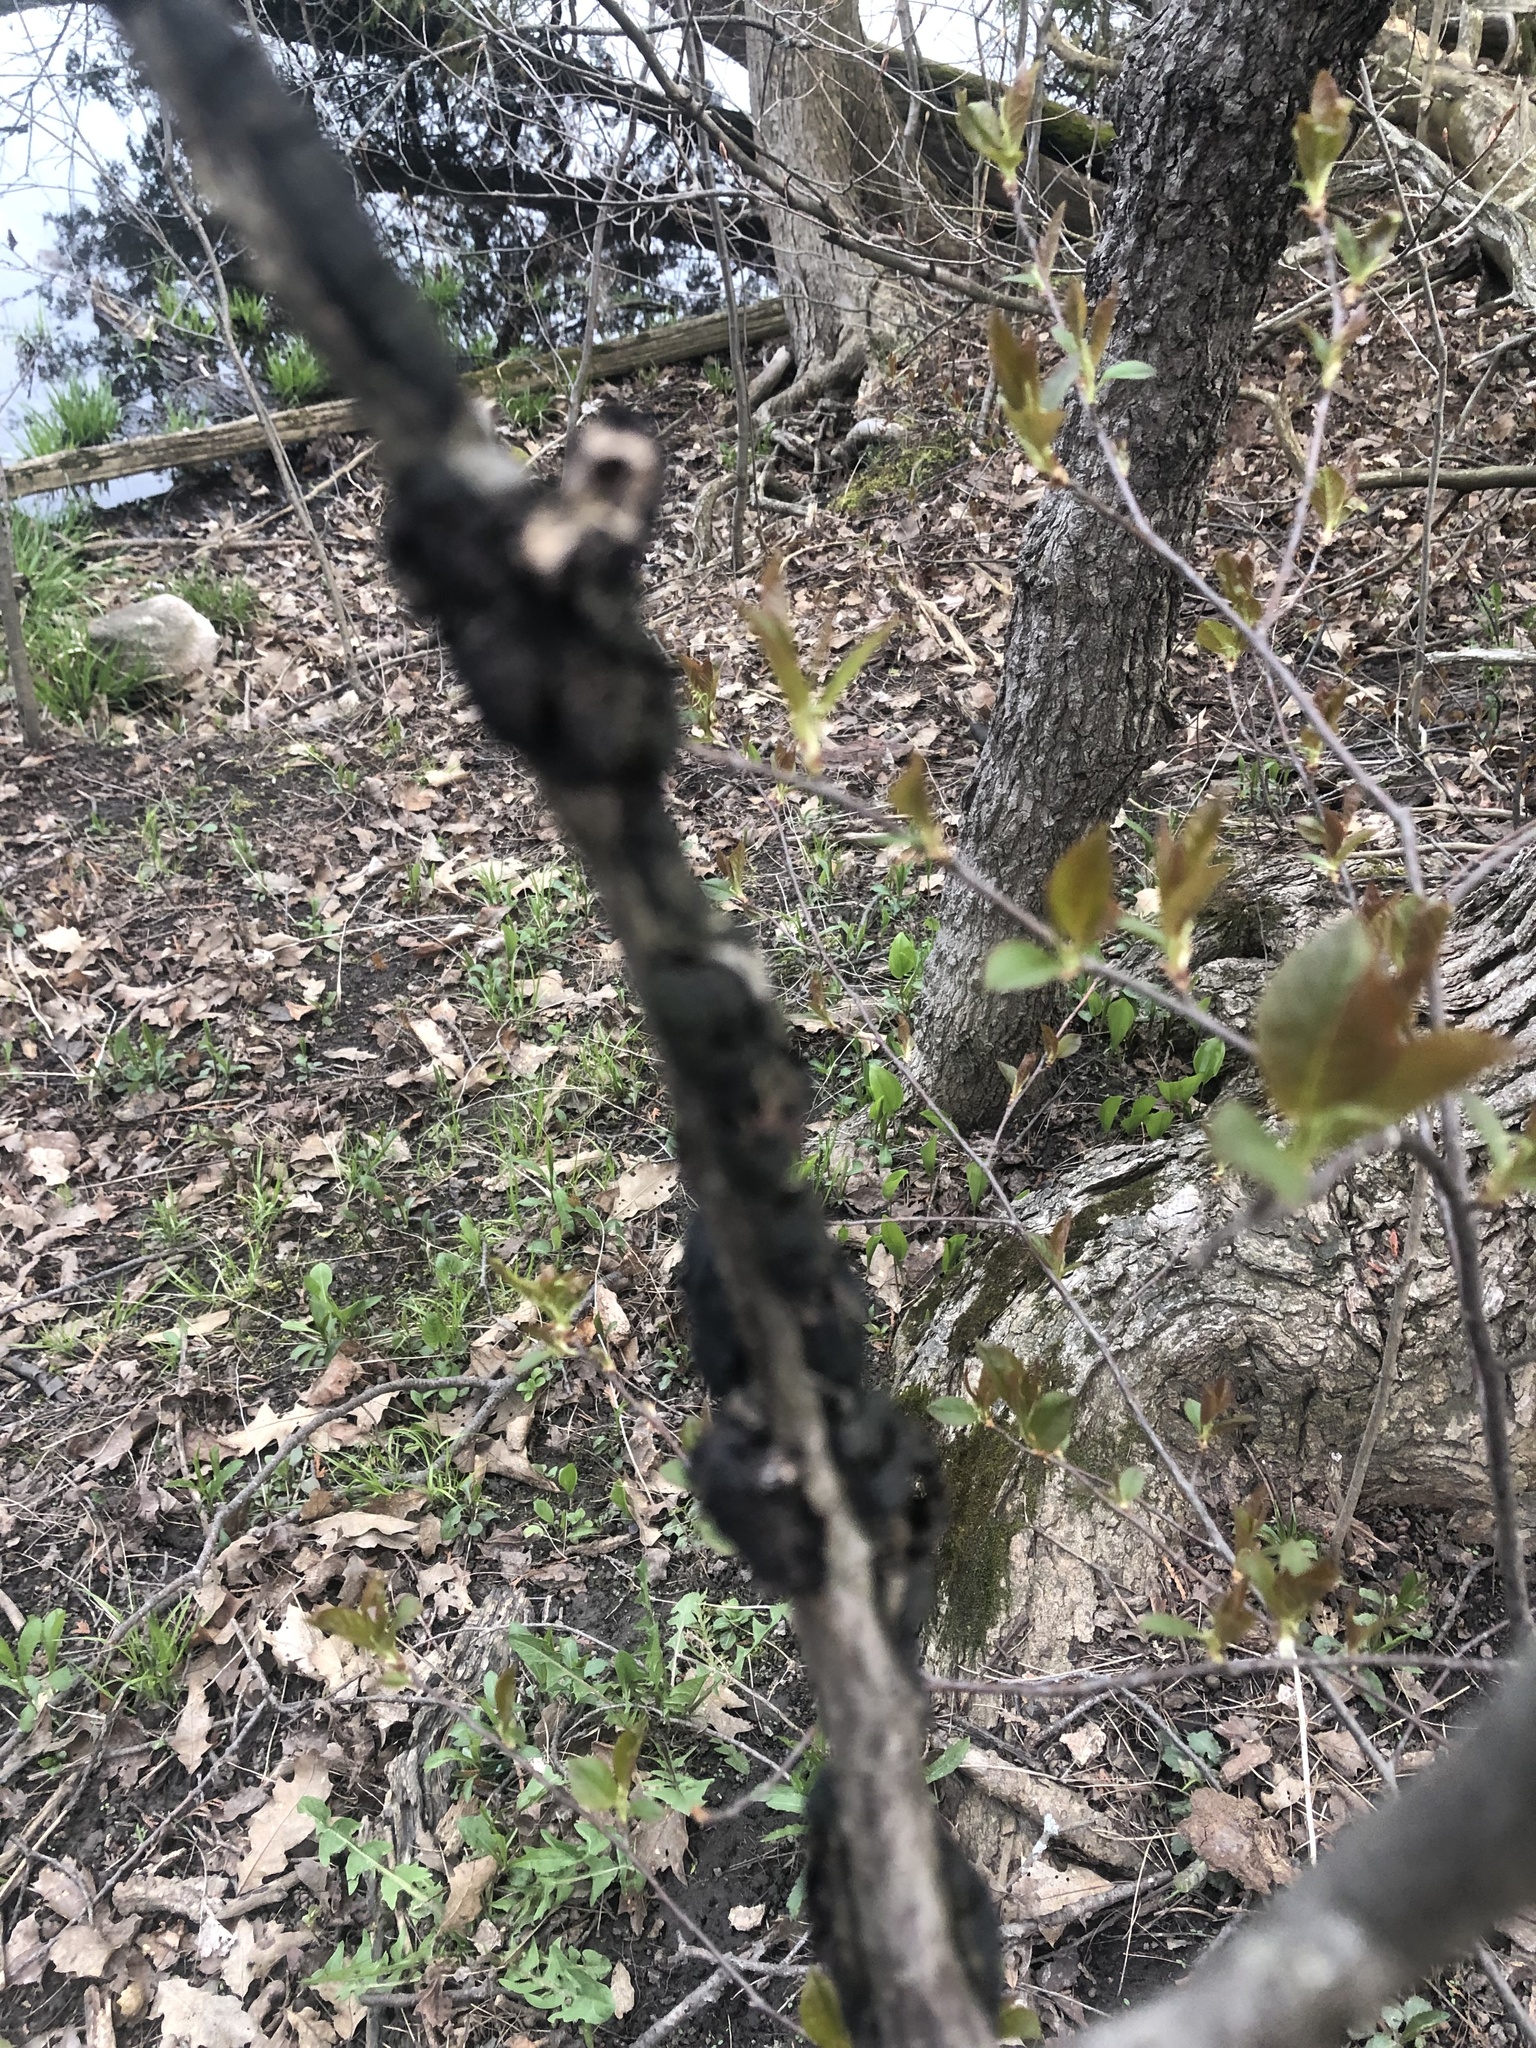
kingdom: Fungi
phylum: Ascomycota
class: Dothideomycetes
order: Venturiales
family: Venturiaceae
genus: Apiosporina
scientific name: Apiosporina morbosa
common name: Black knot
